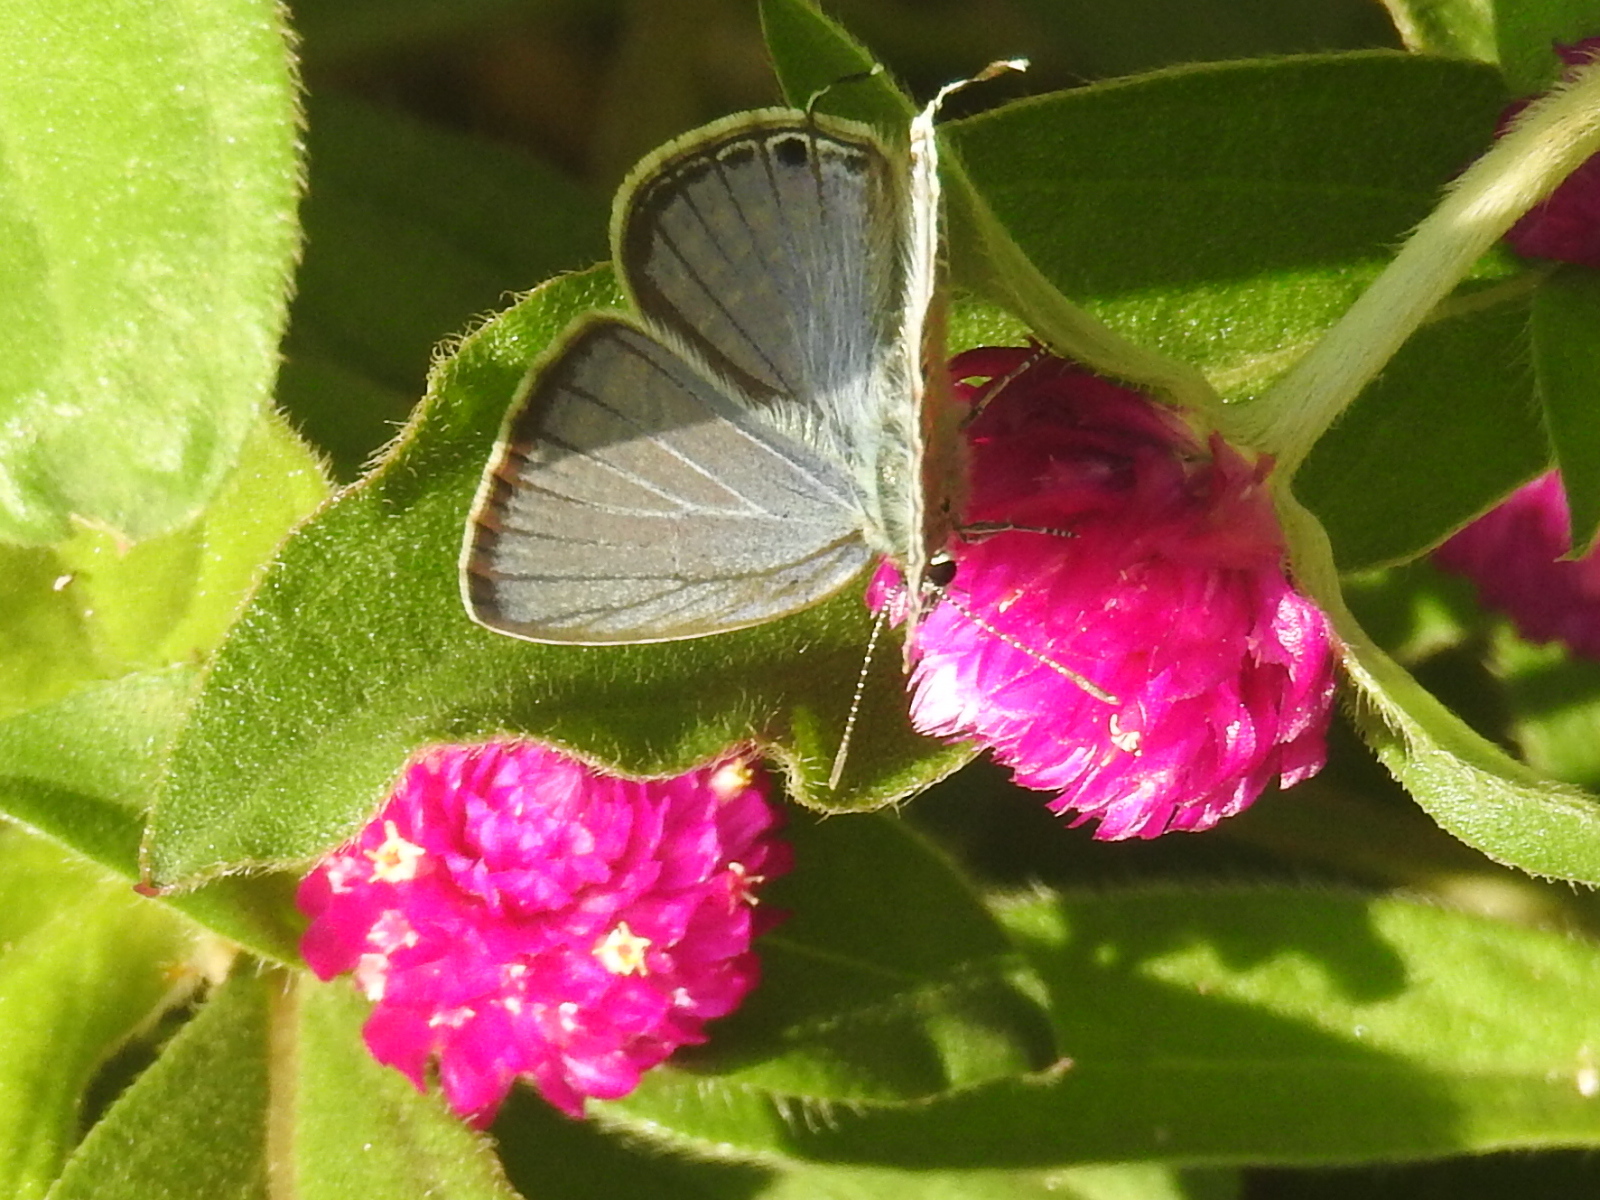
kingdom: Animalia
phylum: Arthropoda
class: Insecta
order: Lepidoptera
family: Lycaenidae
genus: Luthrodes
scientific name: Luthrodes pandava
